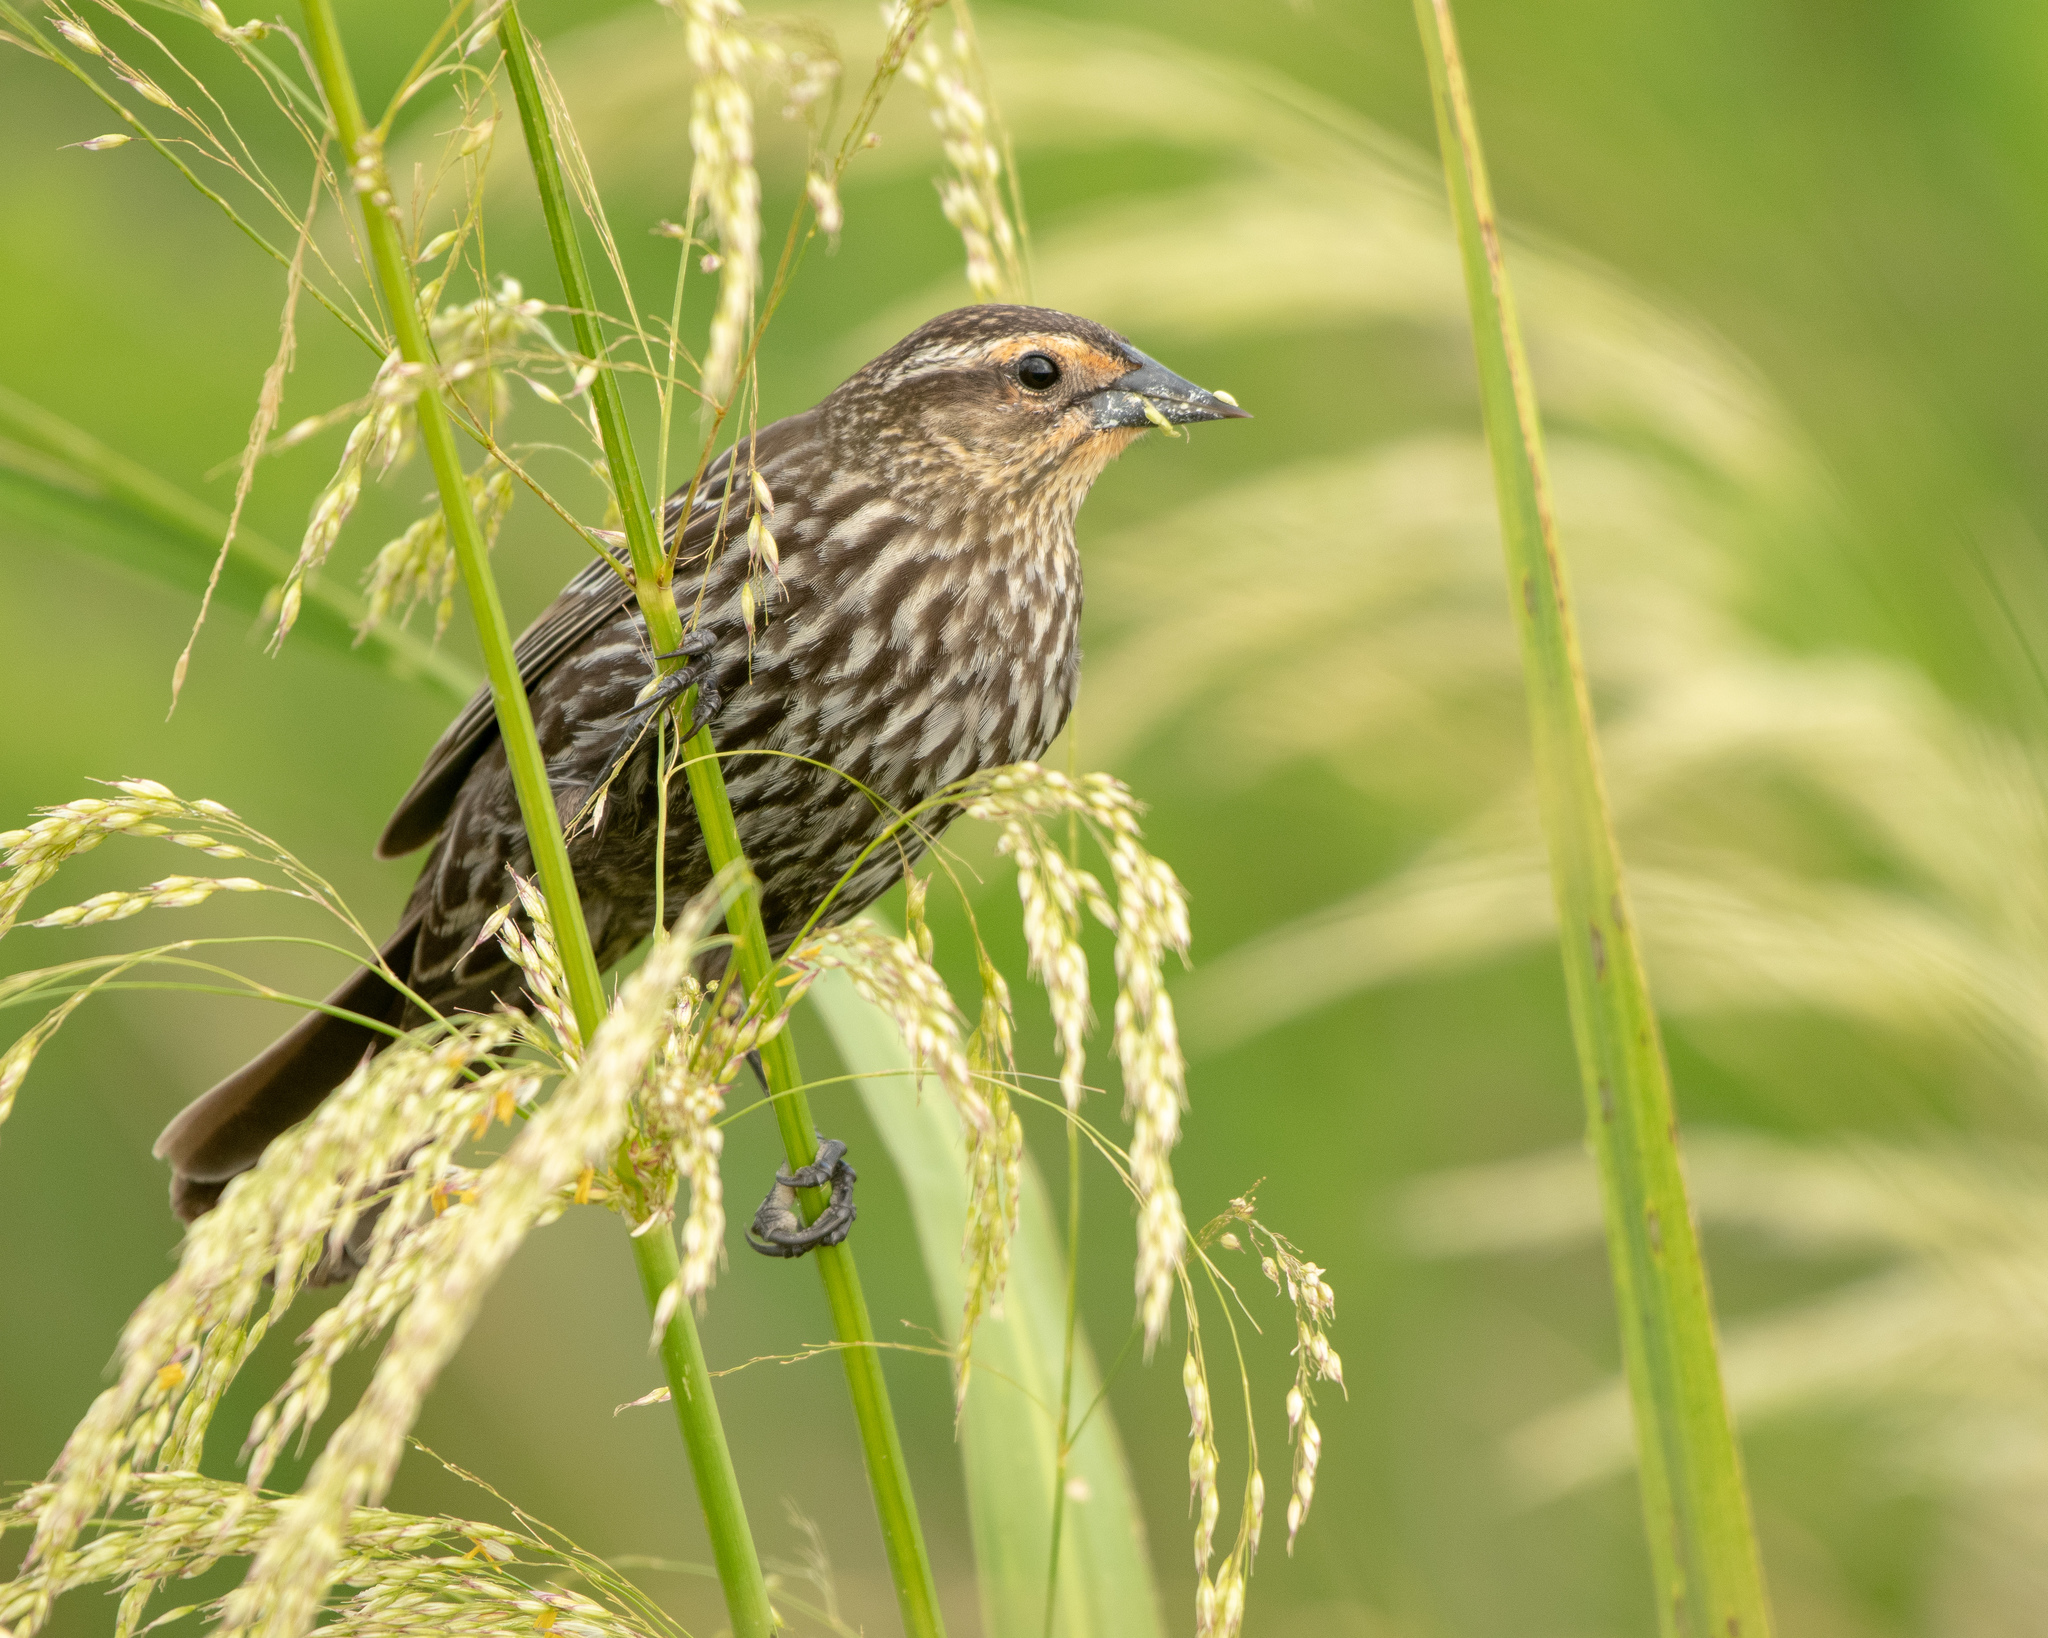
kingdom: Animalia
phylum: Chordata
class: Aves
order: Passeriformes
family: Icteridae
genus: Agelaius
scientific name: Agelaius phoeniceus
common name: Red-winged blackbird
